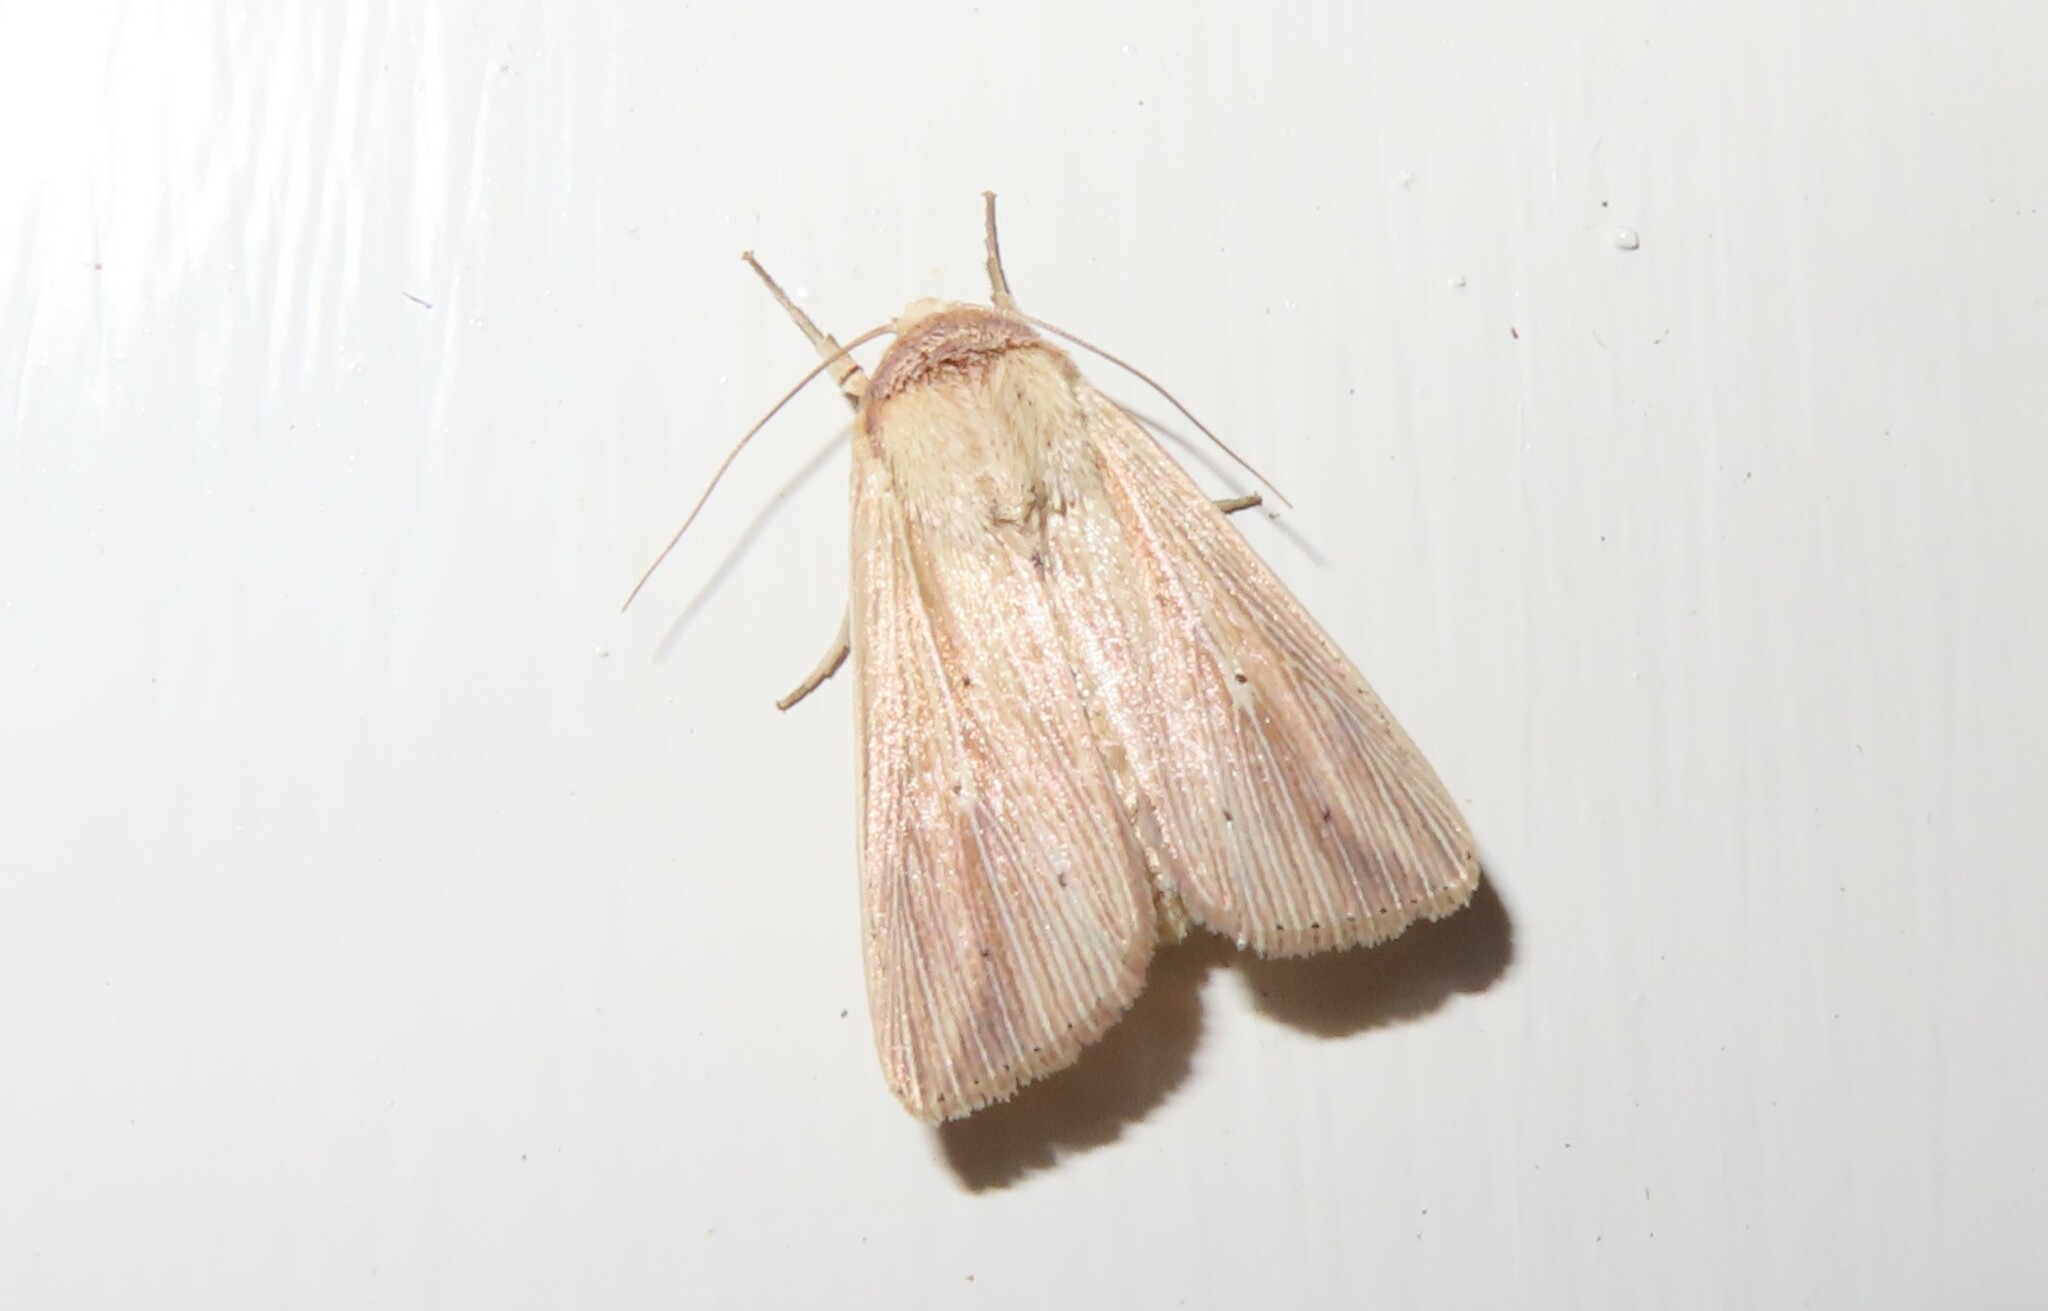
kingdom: Animalia
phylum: Arthropoda
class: Insecta
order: Lepidoptera
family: Noctuidae
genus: Leucania
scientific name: Leucania adjuta
